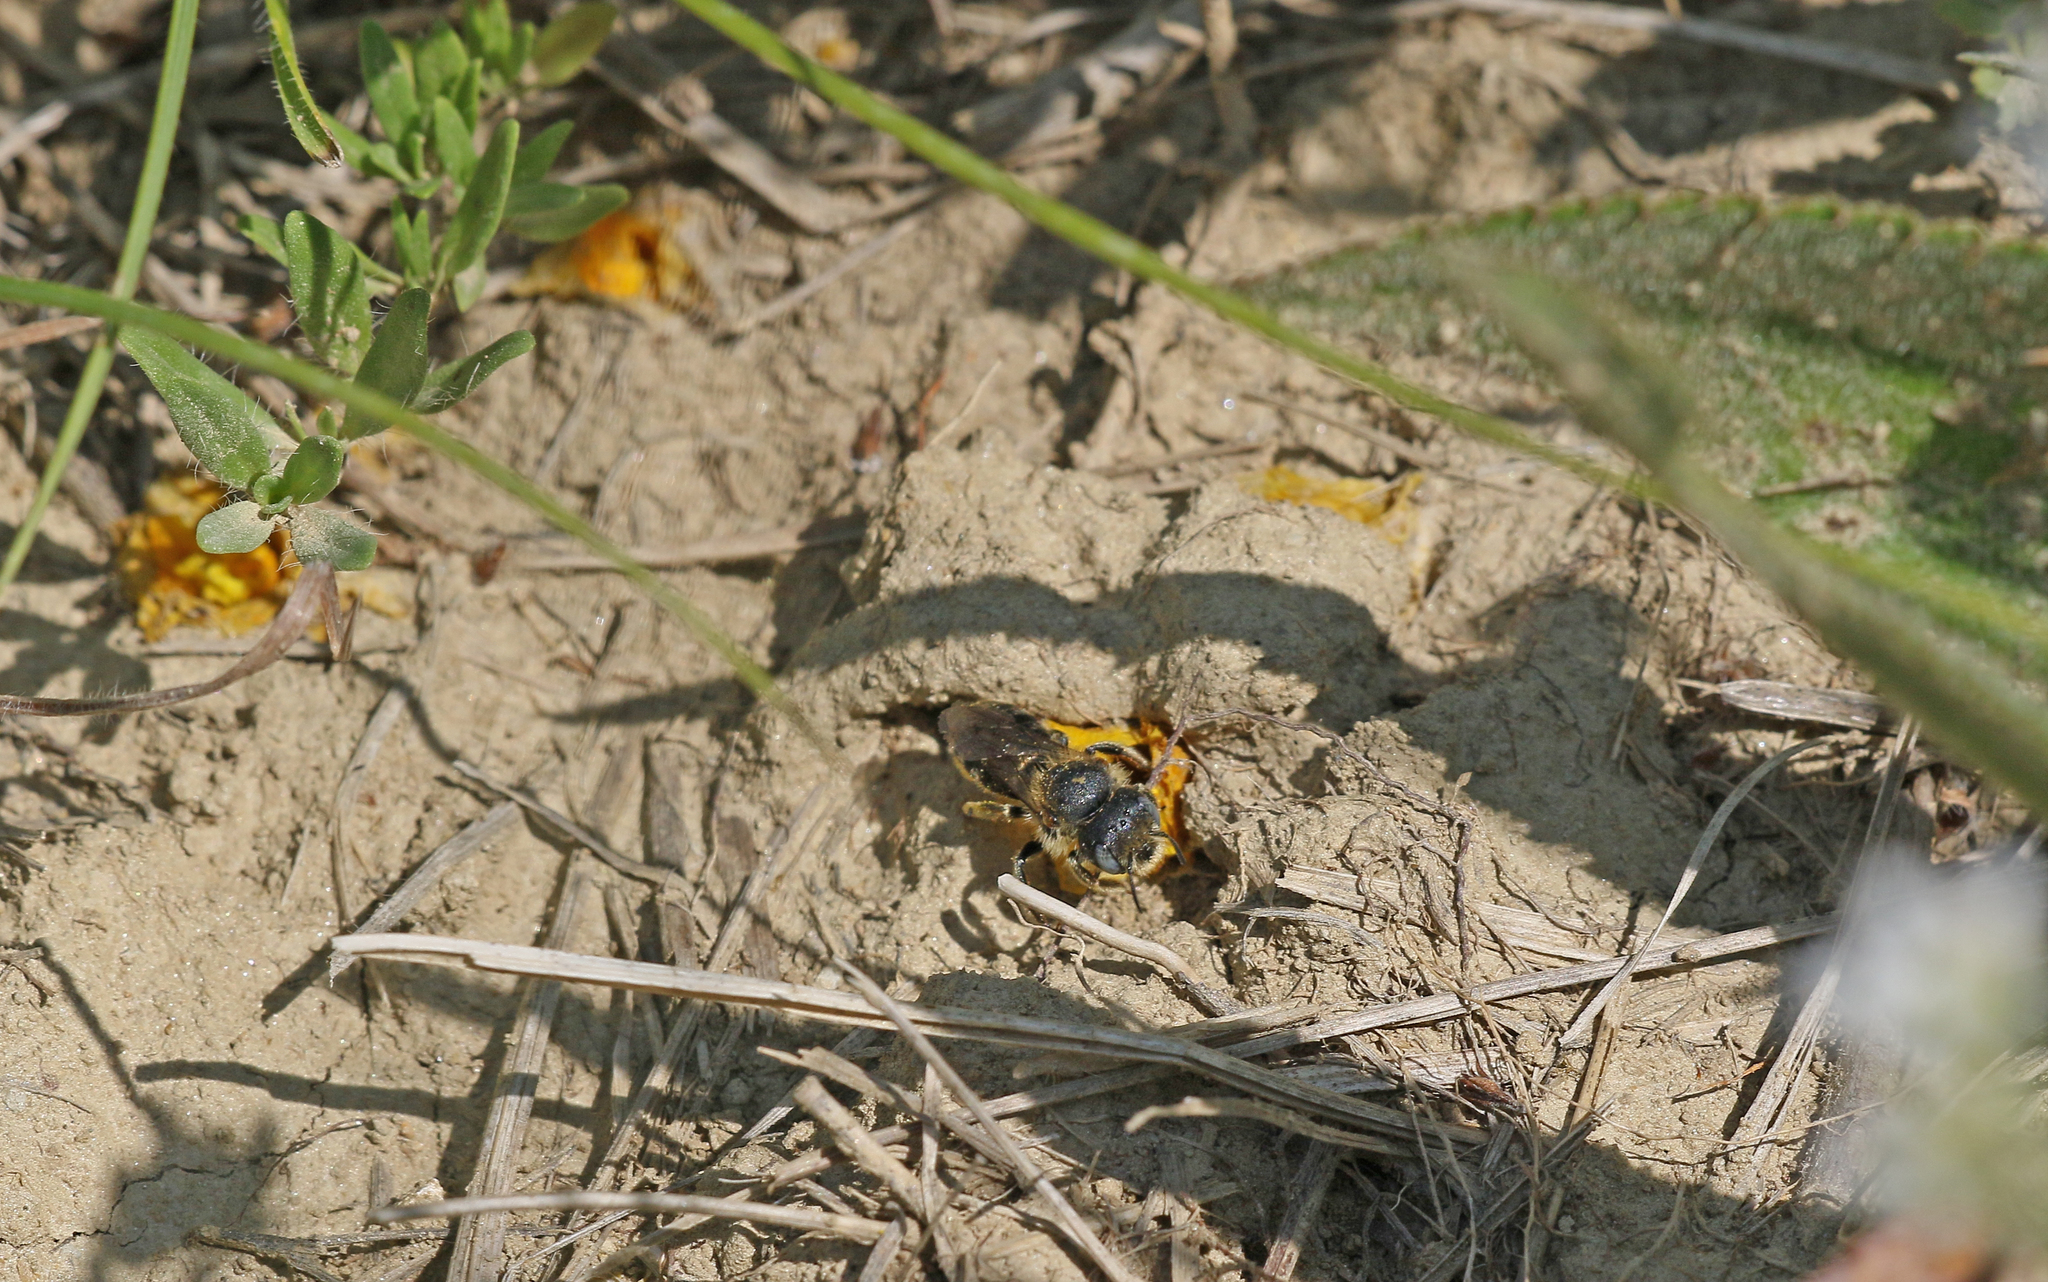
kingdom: Animalia
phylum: Arthropoda
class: Insecta
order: Hymenoptera
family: Megachilidae
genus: Hoplitis
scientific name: Hoplitis mocsaryi
